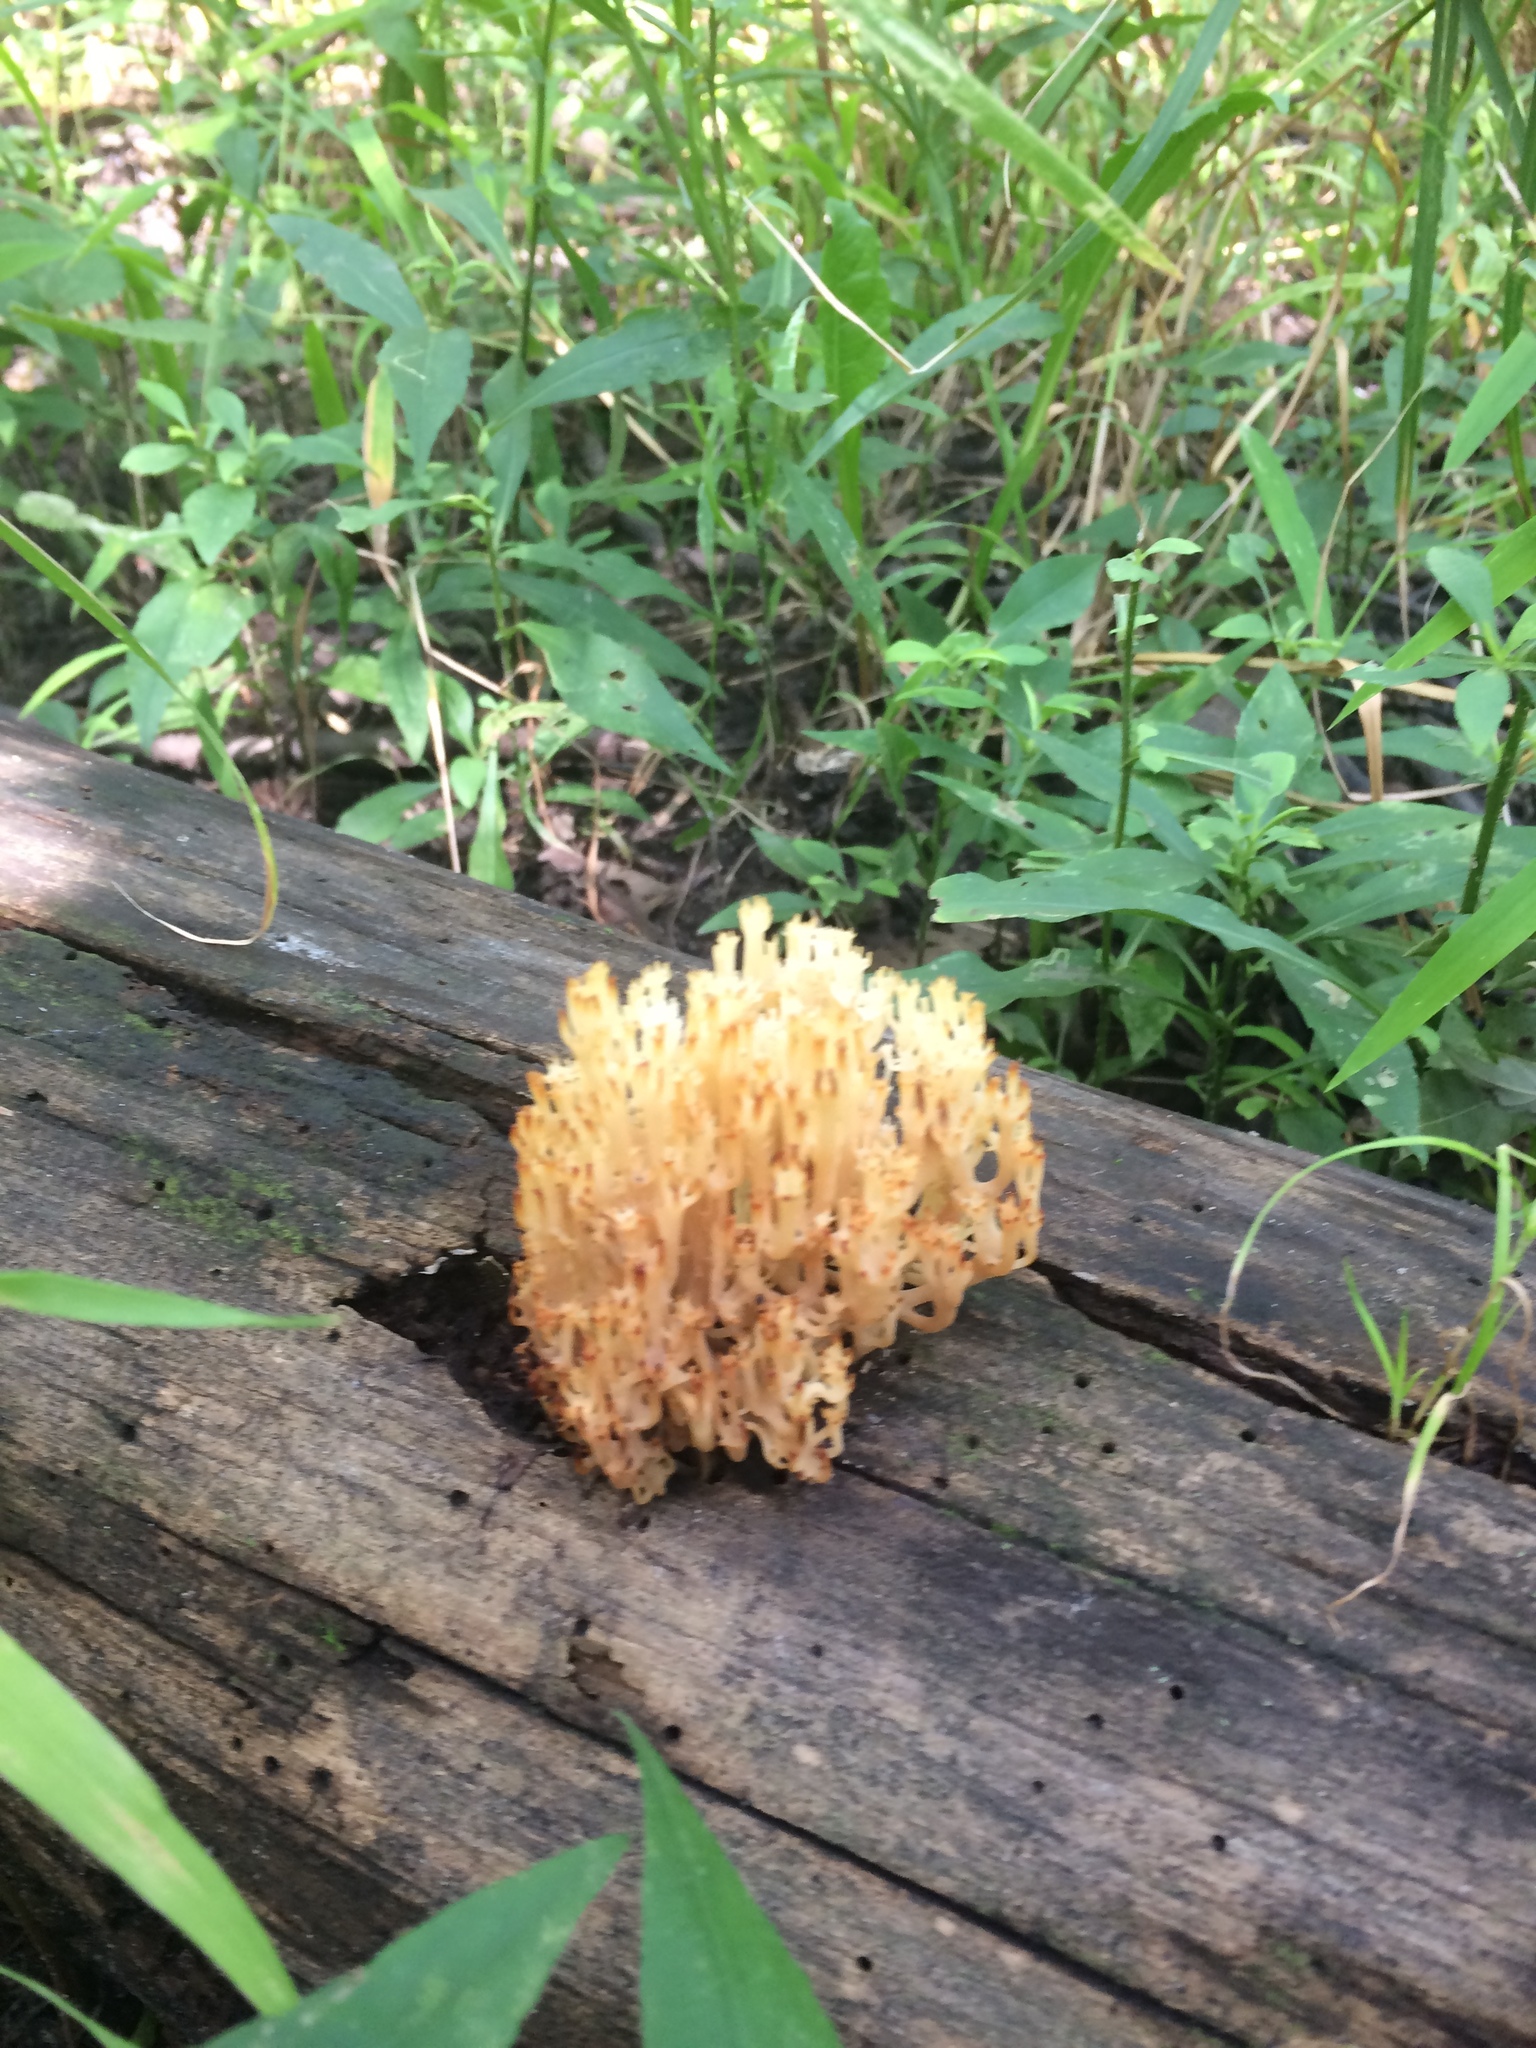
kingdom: Fungi
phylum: Basidiomycota
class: Agaricomycetes
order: Russulales
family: Auriscalpiaceae
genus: Artomyces
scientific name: Artomyces pyxidatus
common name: Crown-tipped coral fungus
